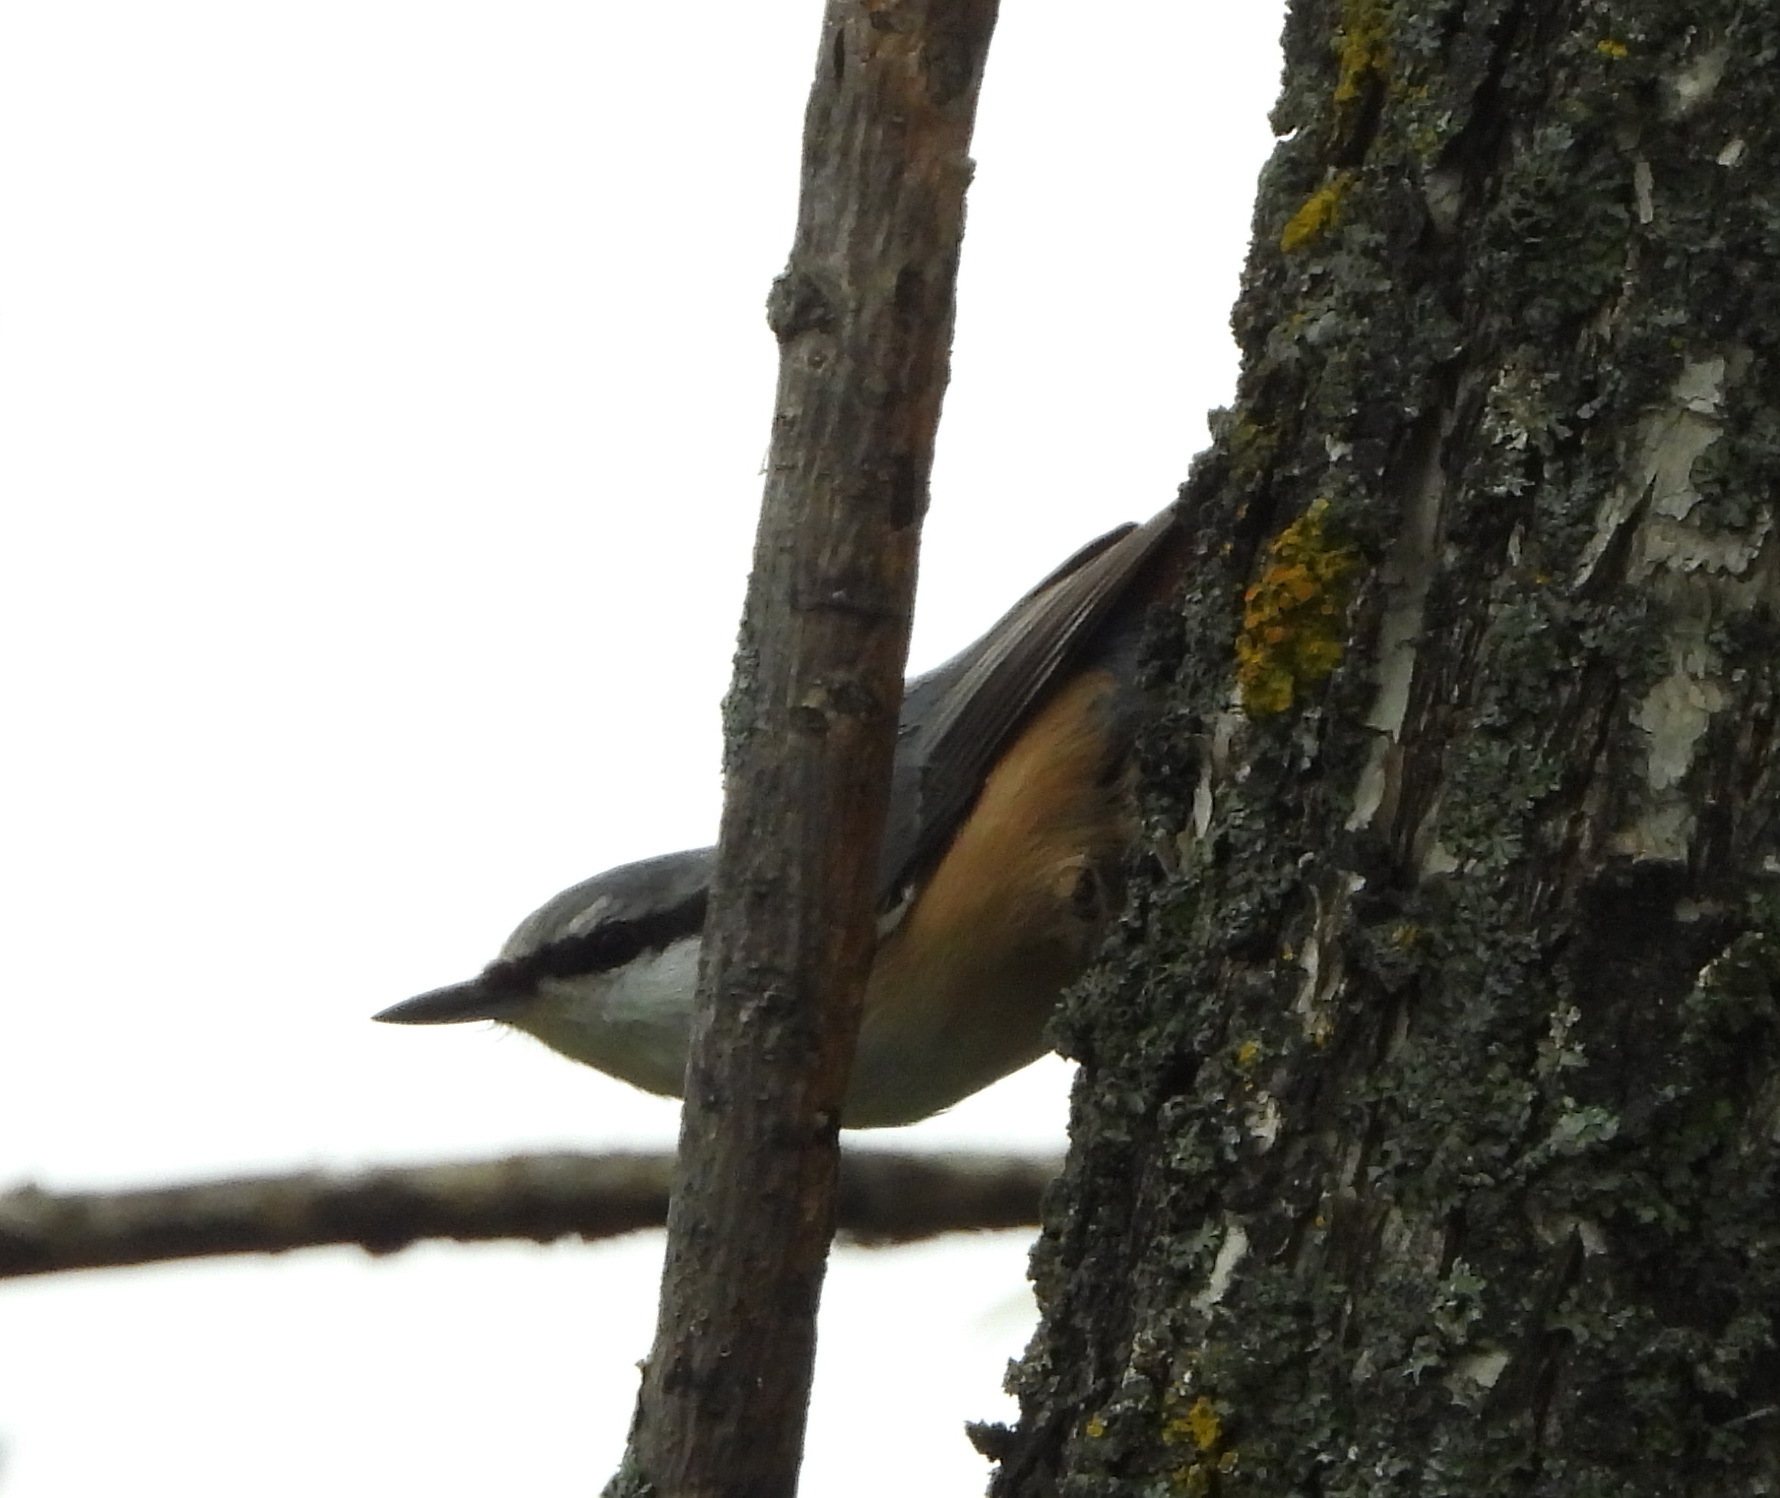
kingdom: Animalia
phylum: Chordata
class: Aves
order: Passeriformes
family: Sittidae
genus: Sitta
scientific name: Sitta europaea
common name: Eurasian nuthatch
